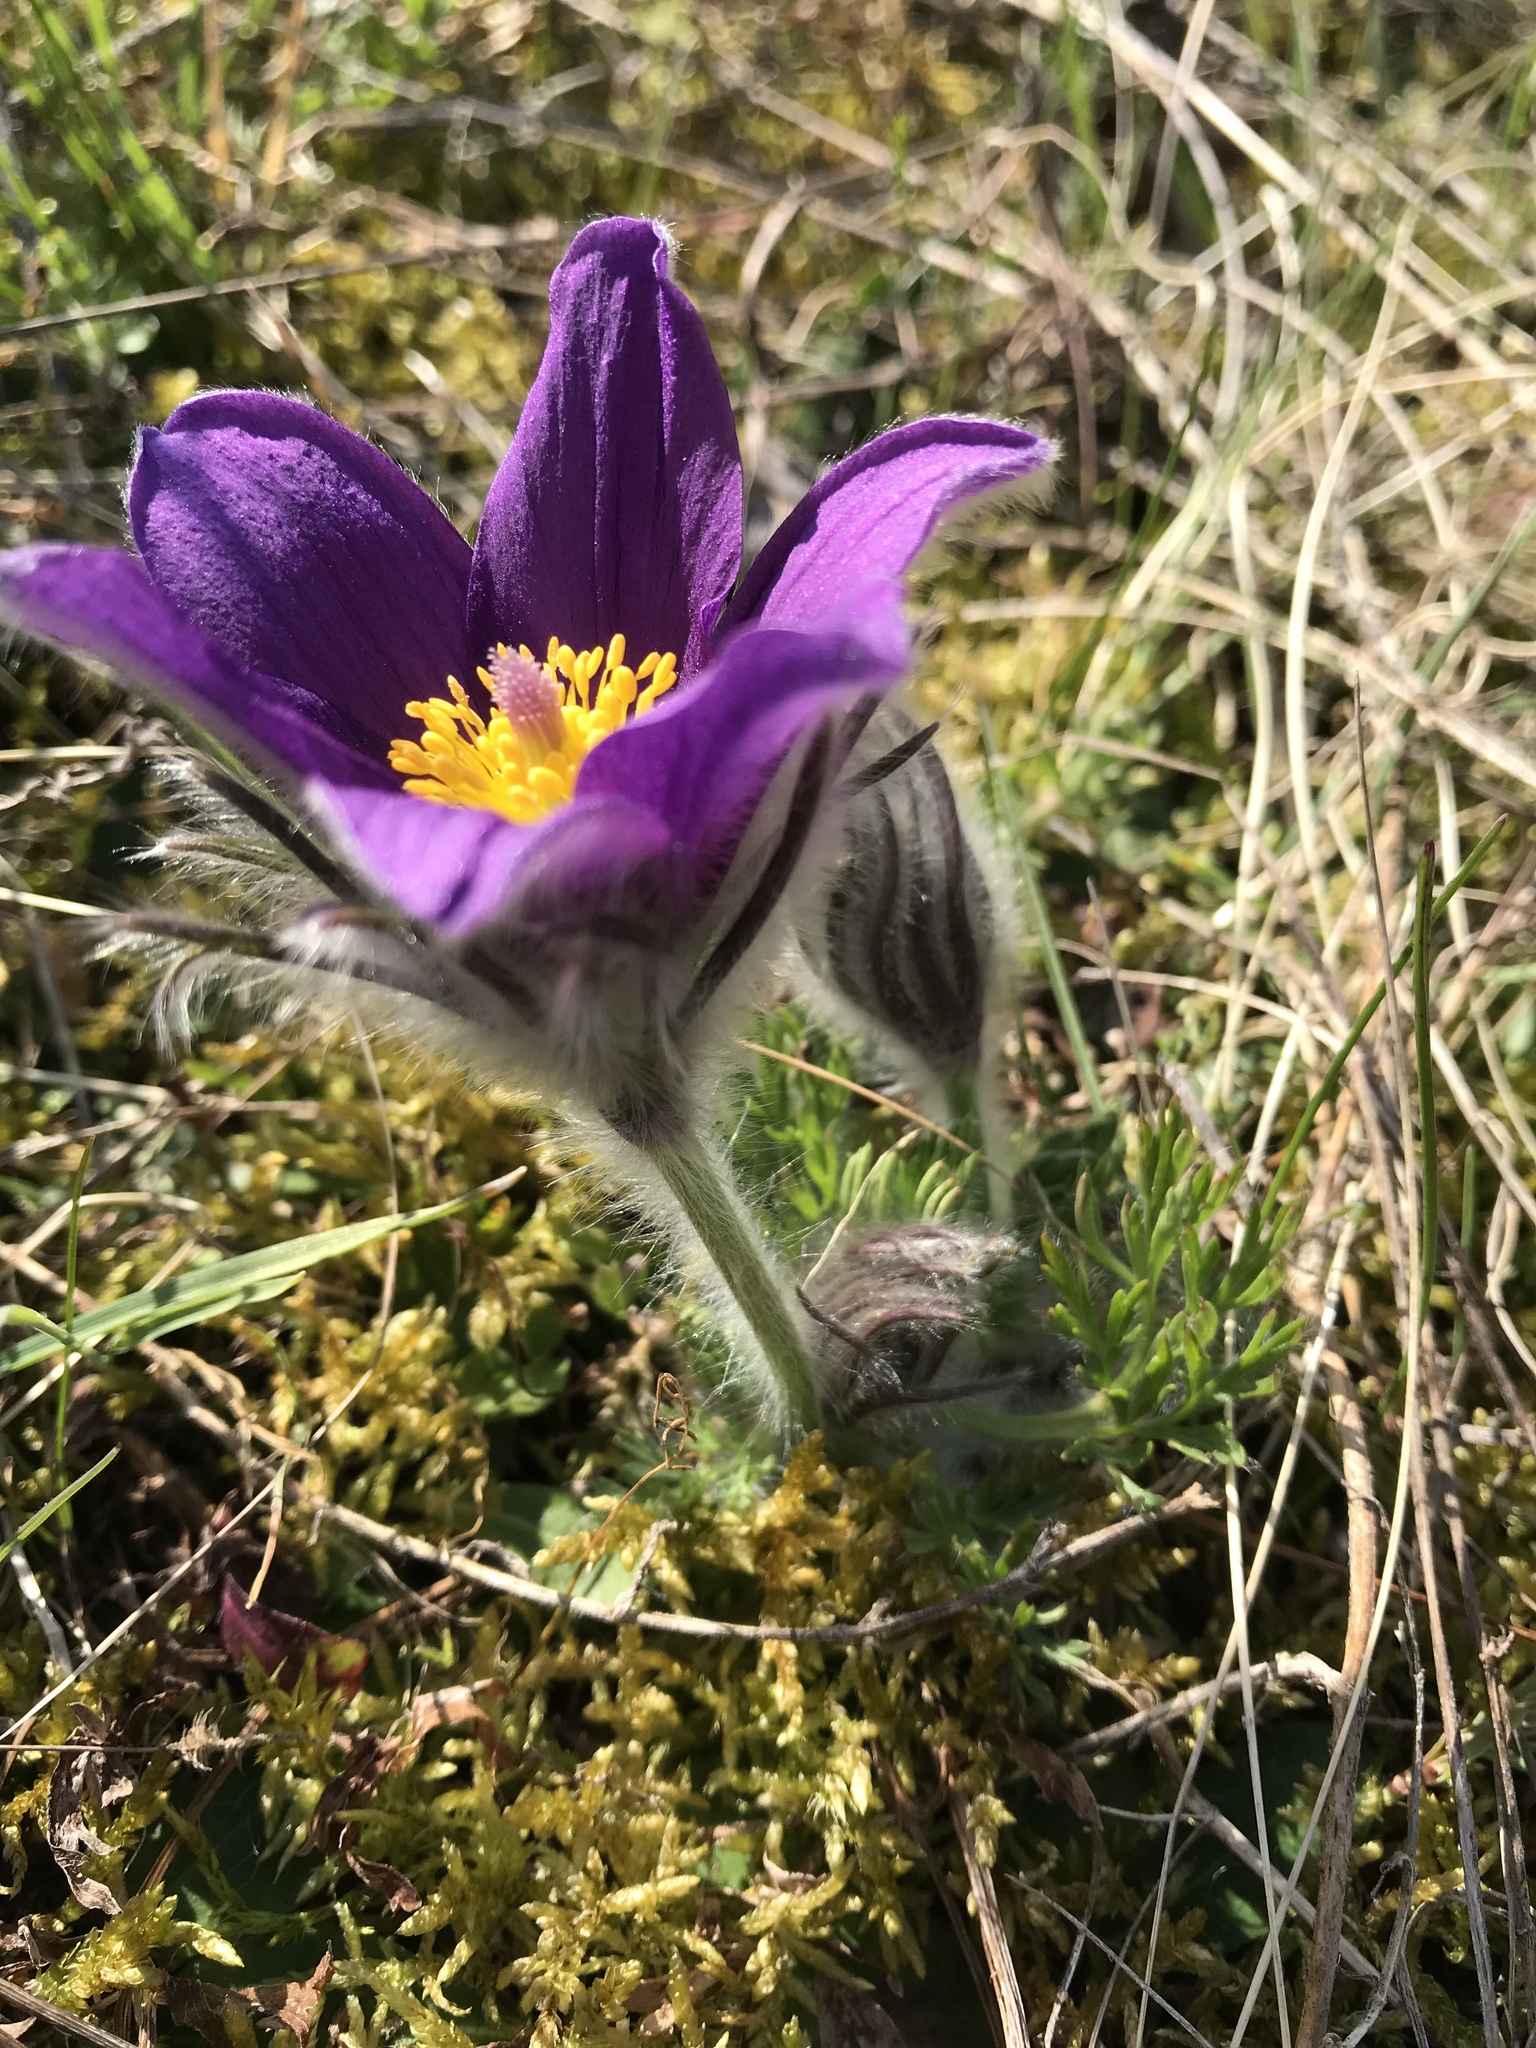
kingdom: Plantae
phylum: Tracheophyta
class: Magnoliopsida
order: Ranunculales
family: Ranunculaceae
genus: Pulsatilla
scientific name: Pulsatilla vulgaris
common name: Pasqueflower
